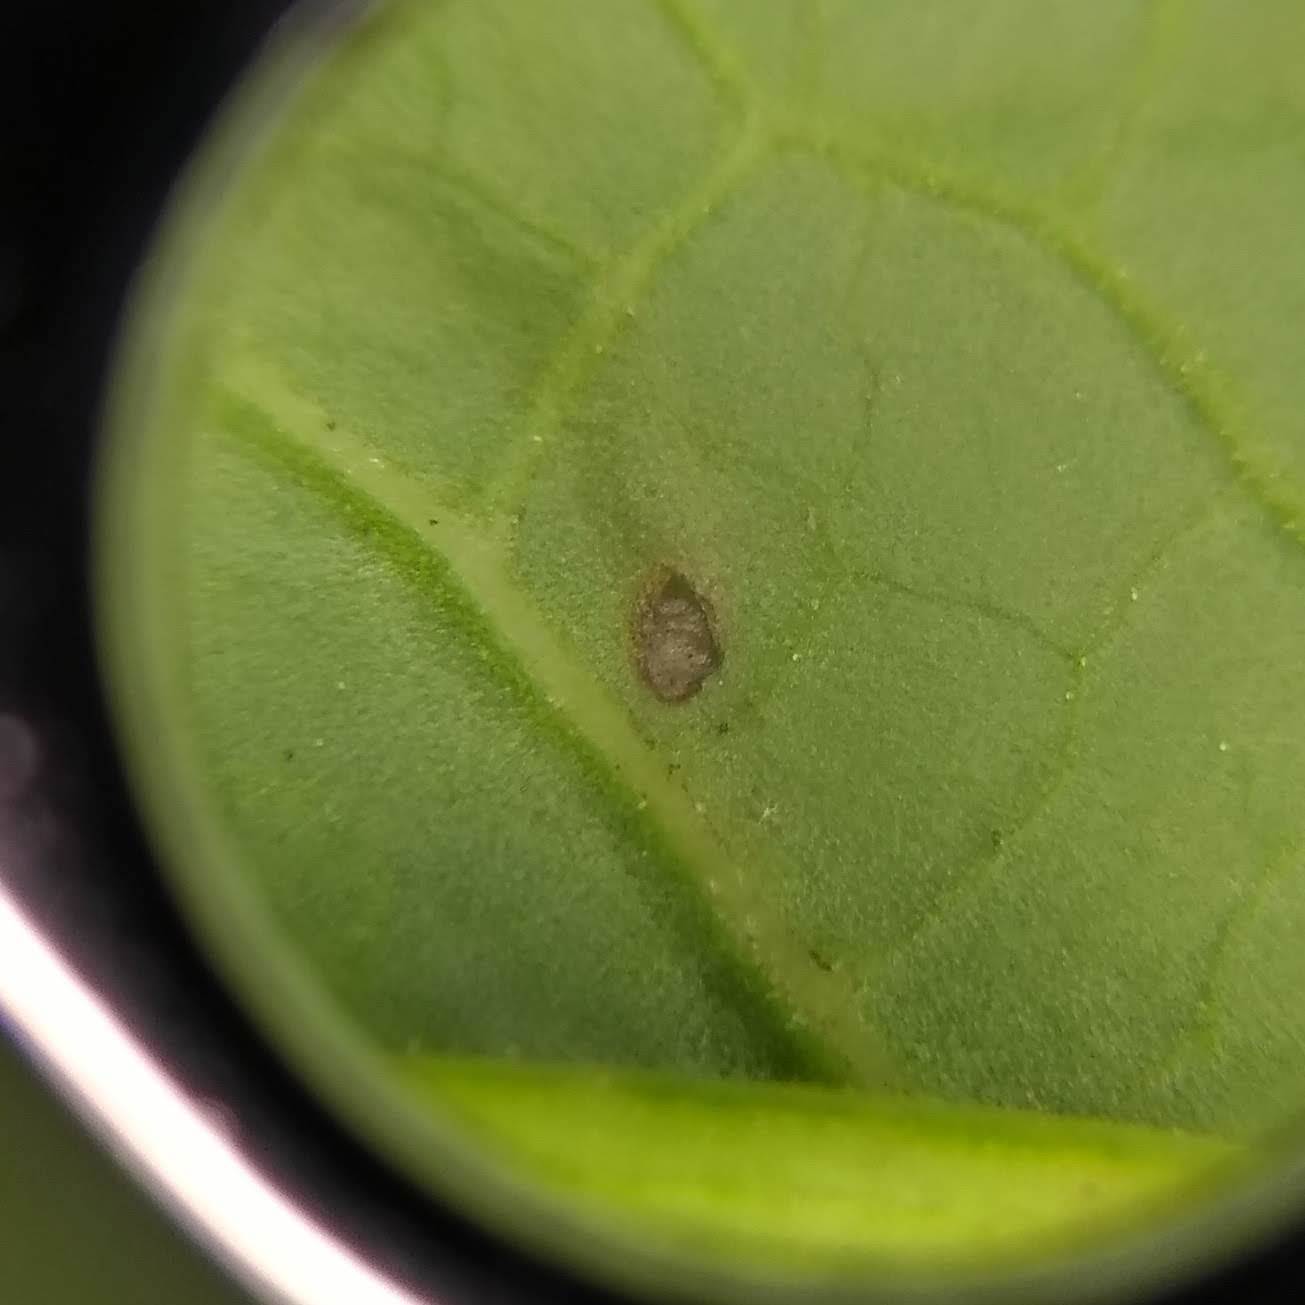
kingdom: Animalia
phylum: Arthropoda
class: Insecta
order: Diptera
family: Anthomyiidae
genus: Pegomya
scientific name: Pegomya bicolor
